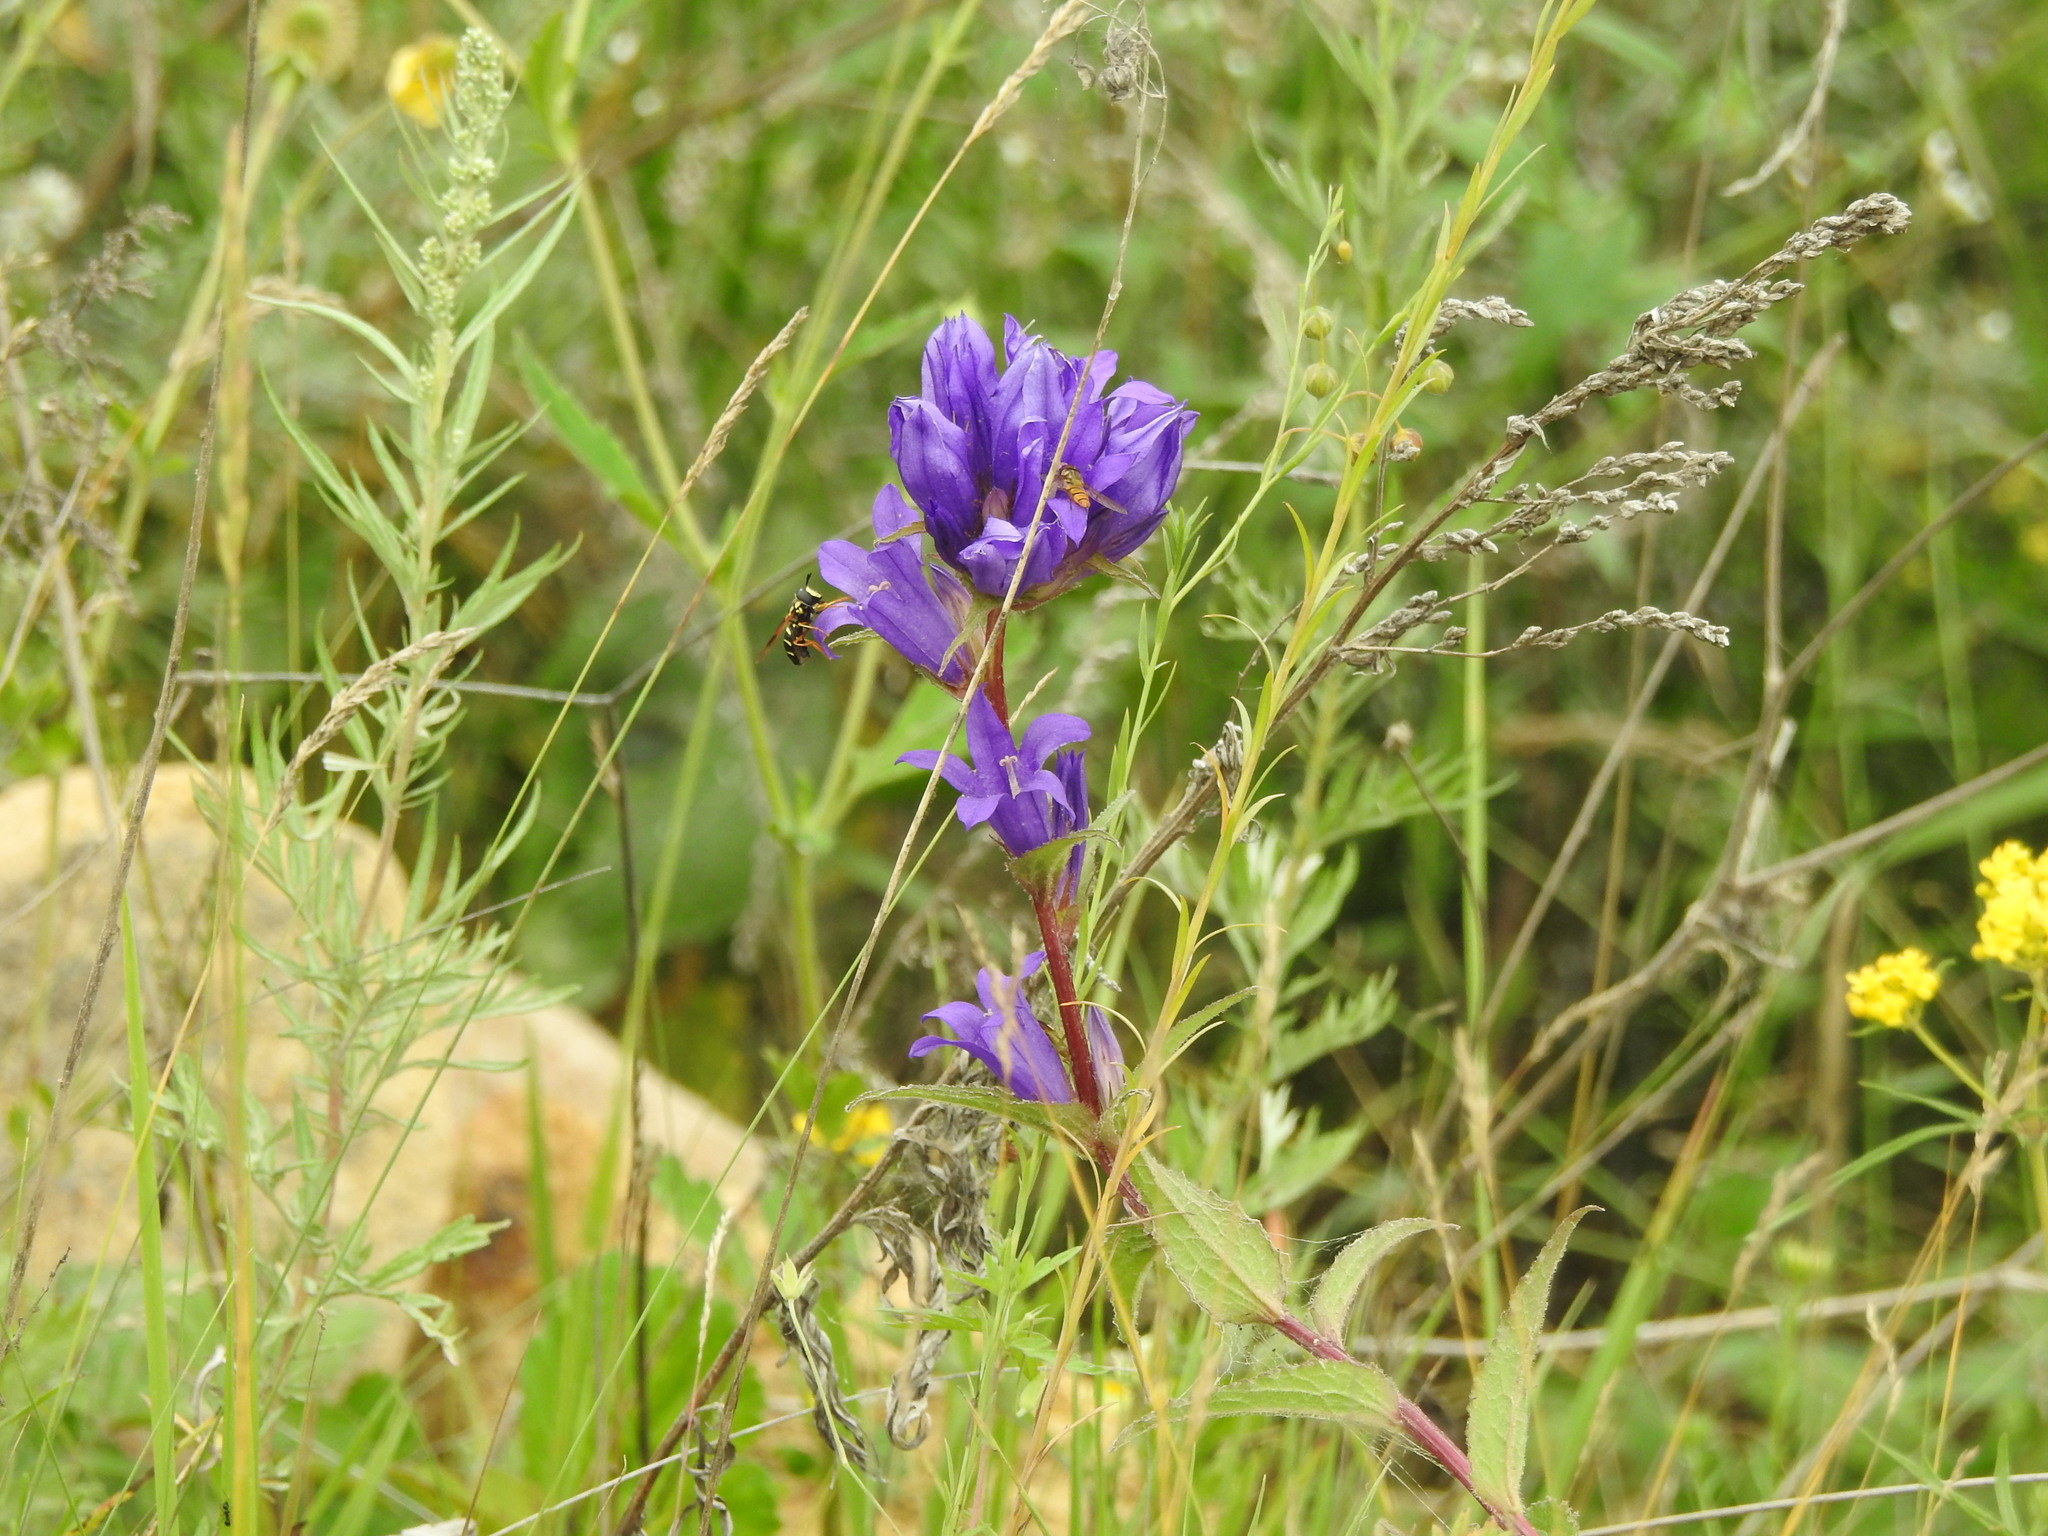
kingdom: Plantae
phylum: Tracheophyta
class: Magnoliopsida
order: Asterales
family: Campanulaceae
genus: Campanula
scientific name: Campanula glomerata
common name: Clustered bellflower
